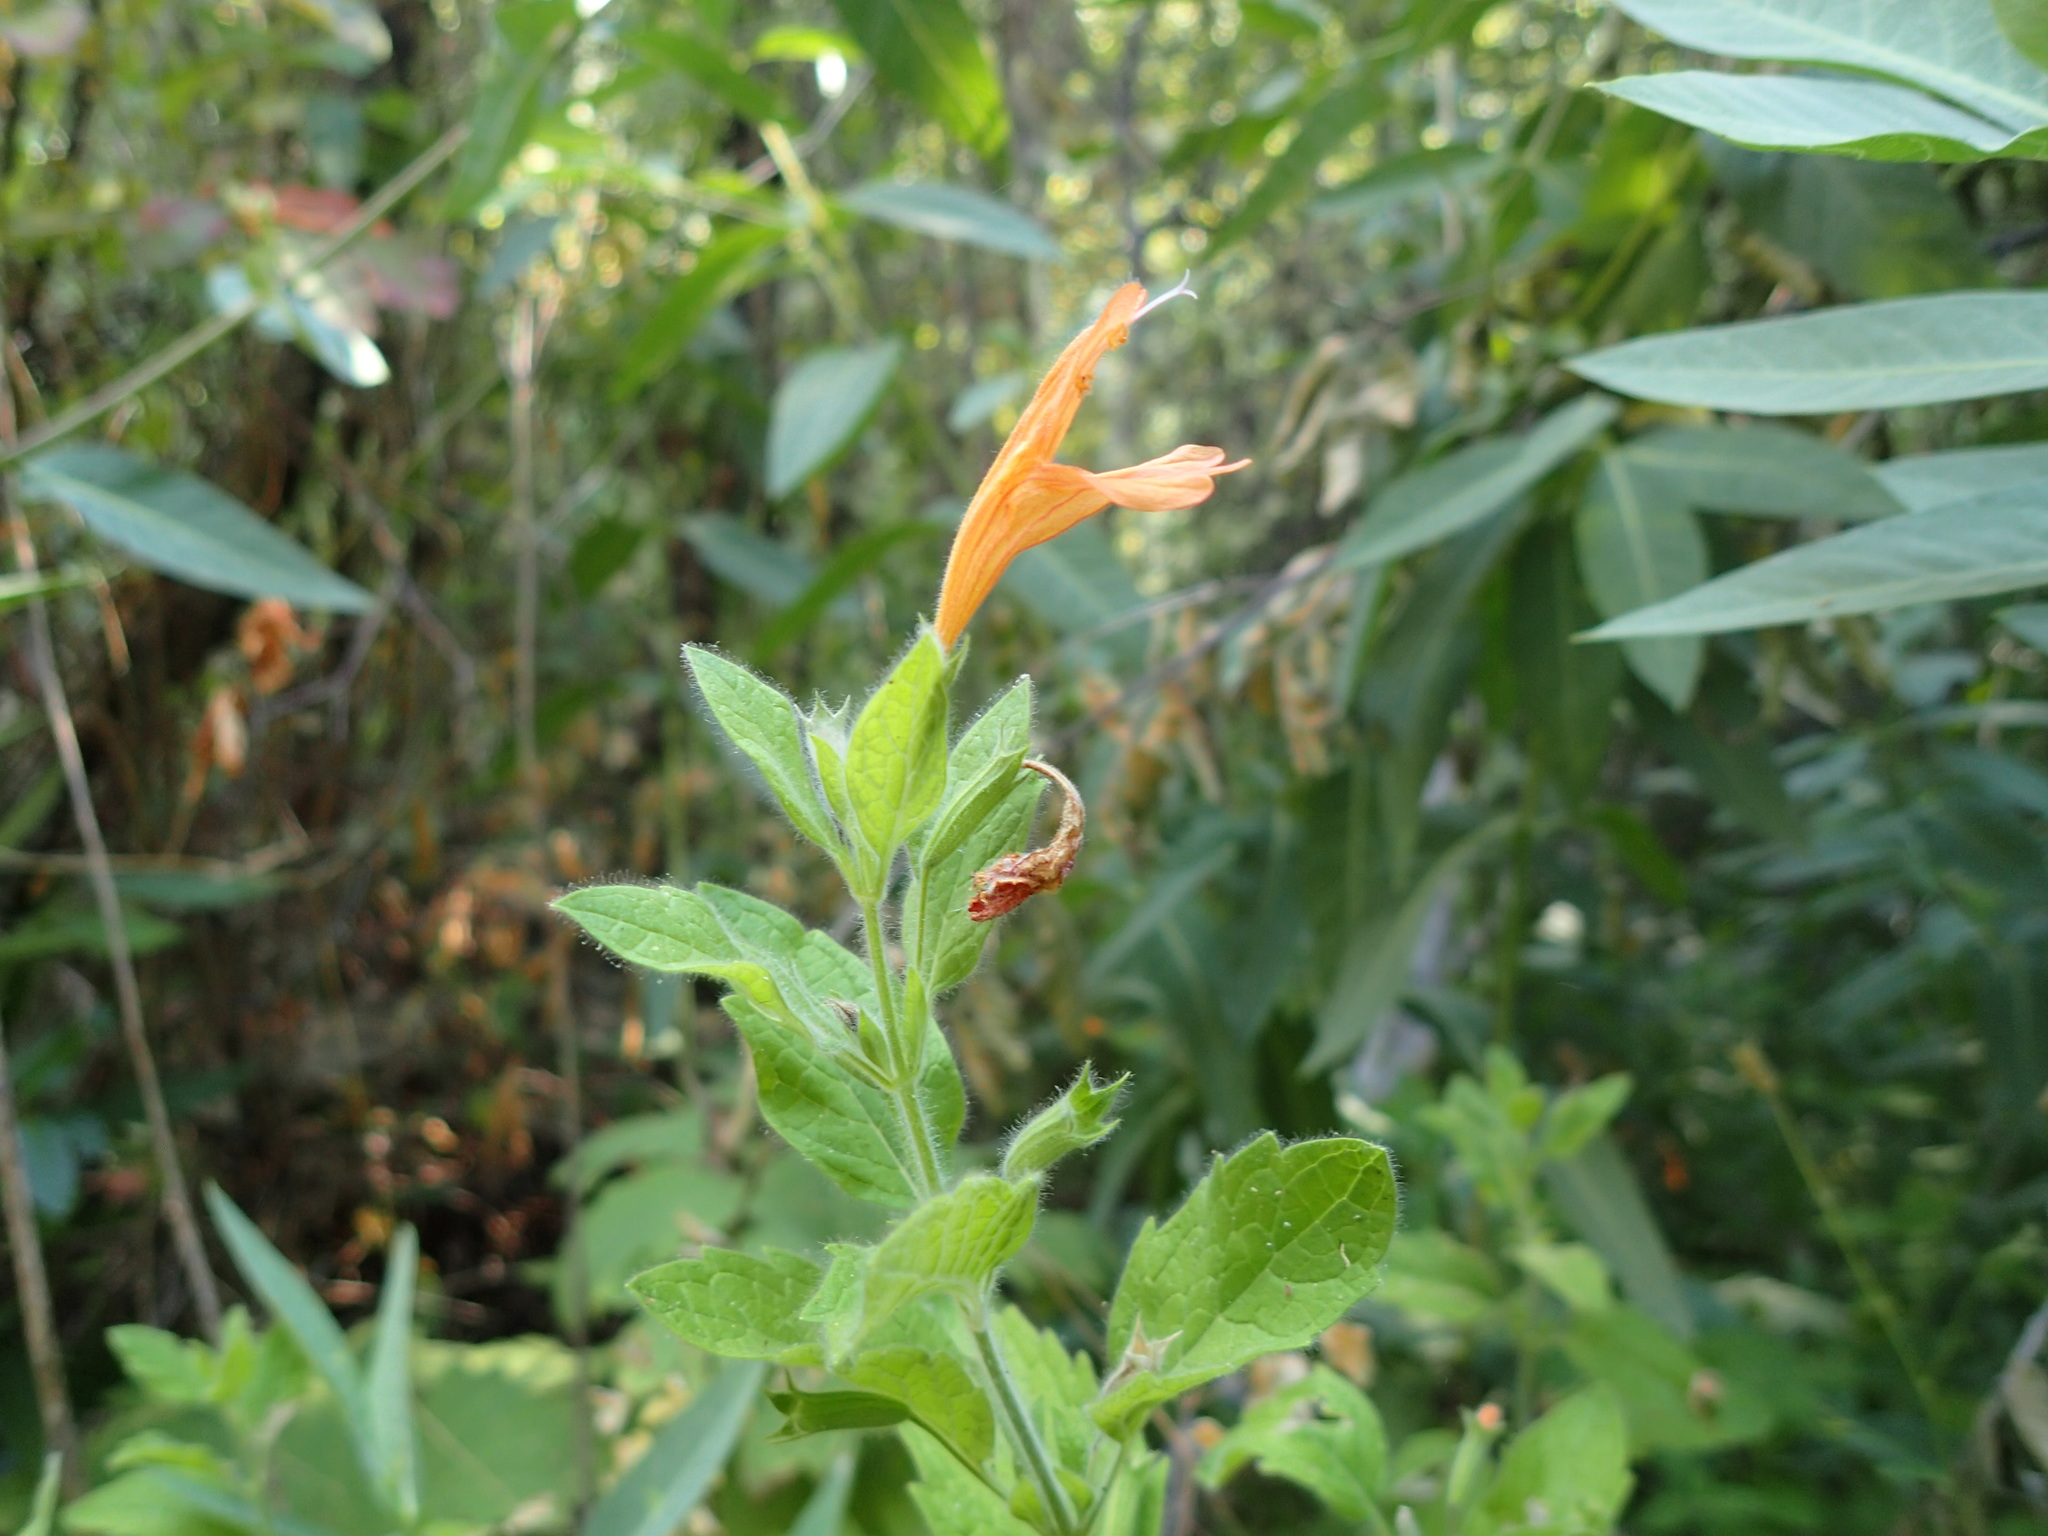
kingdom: Plantae
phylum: Tracheophyta
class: Magnoliopsida
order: Lamiales
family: Lamiaceae
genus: Clinopodium
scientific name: Clinopodium mimuloides
